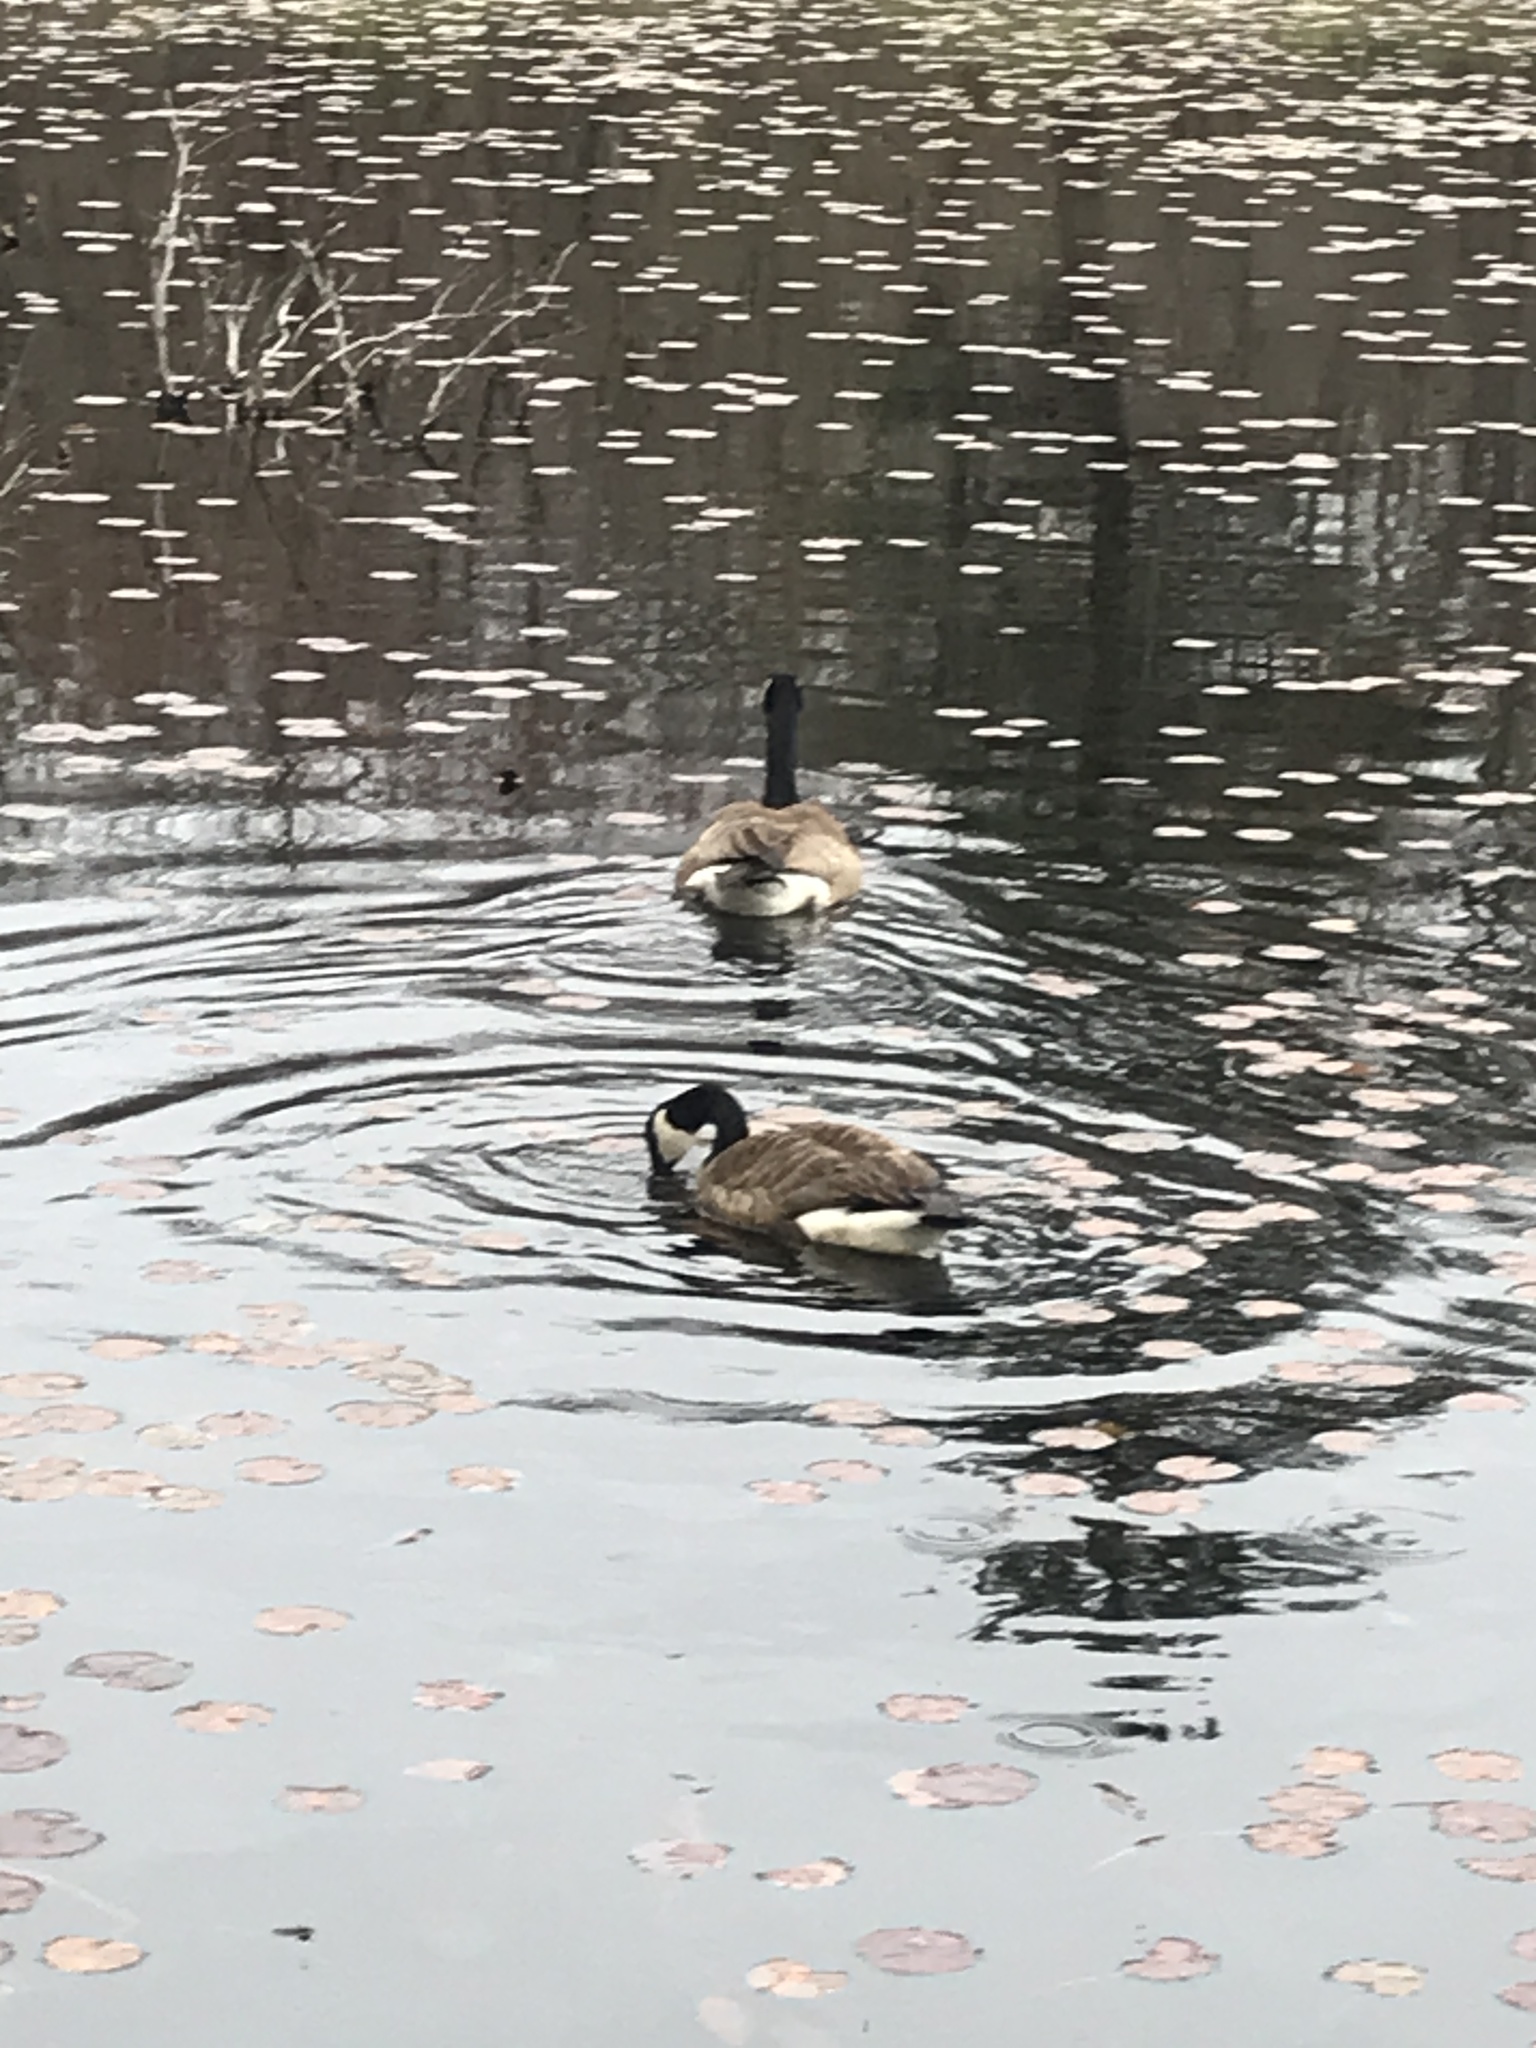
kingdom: Animalia
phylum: Chordata
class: Aves
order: Anseriformes
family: Anatidae
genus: Branta
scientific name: Branta canadensis
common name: Canada goose
